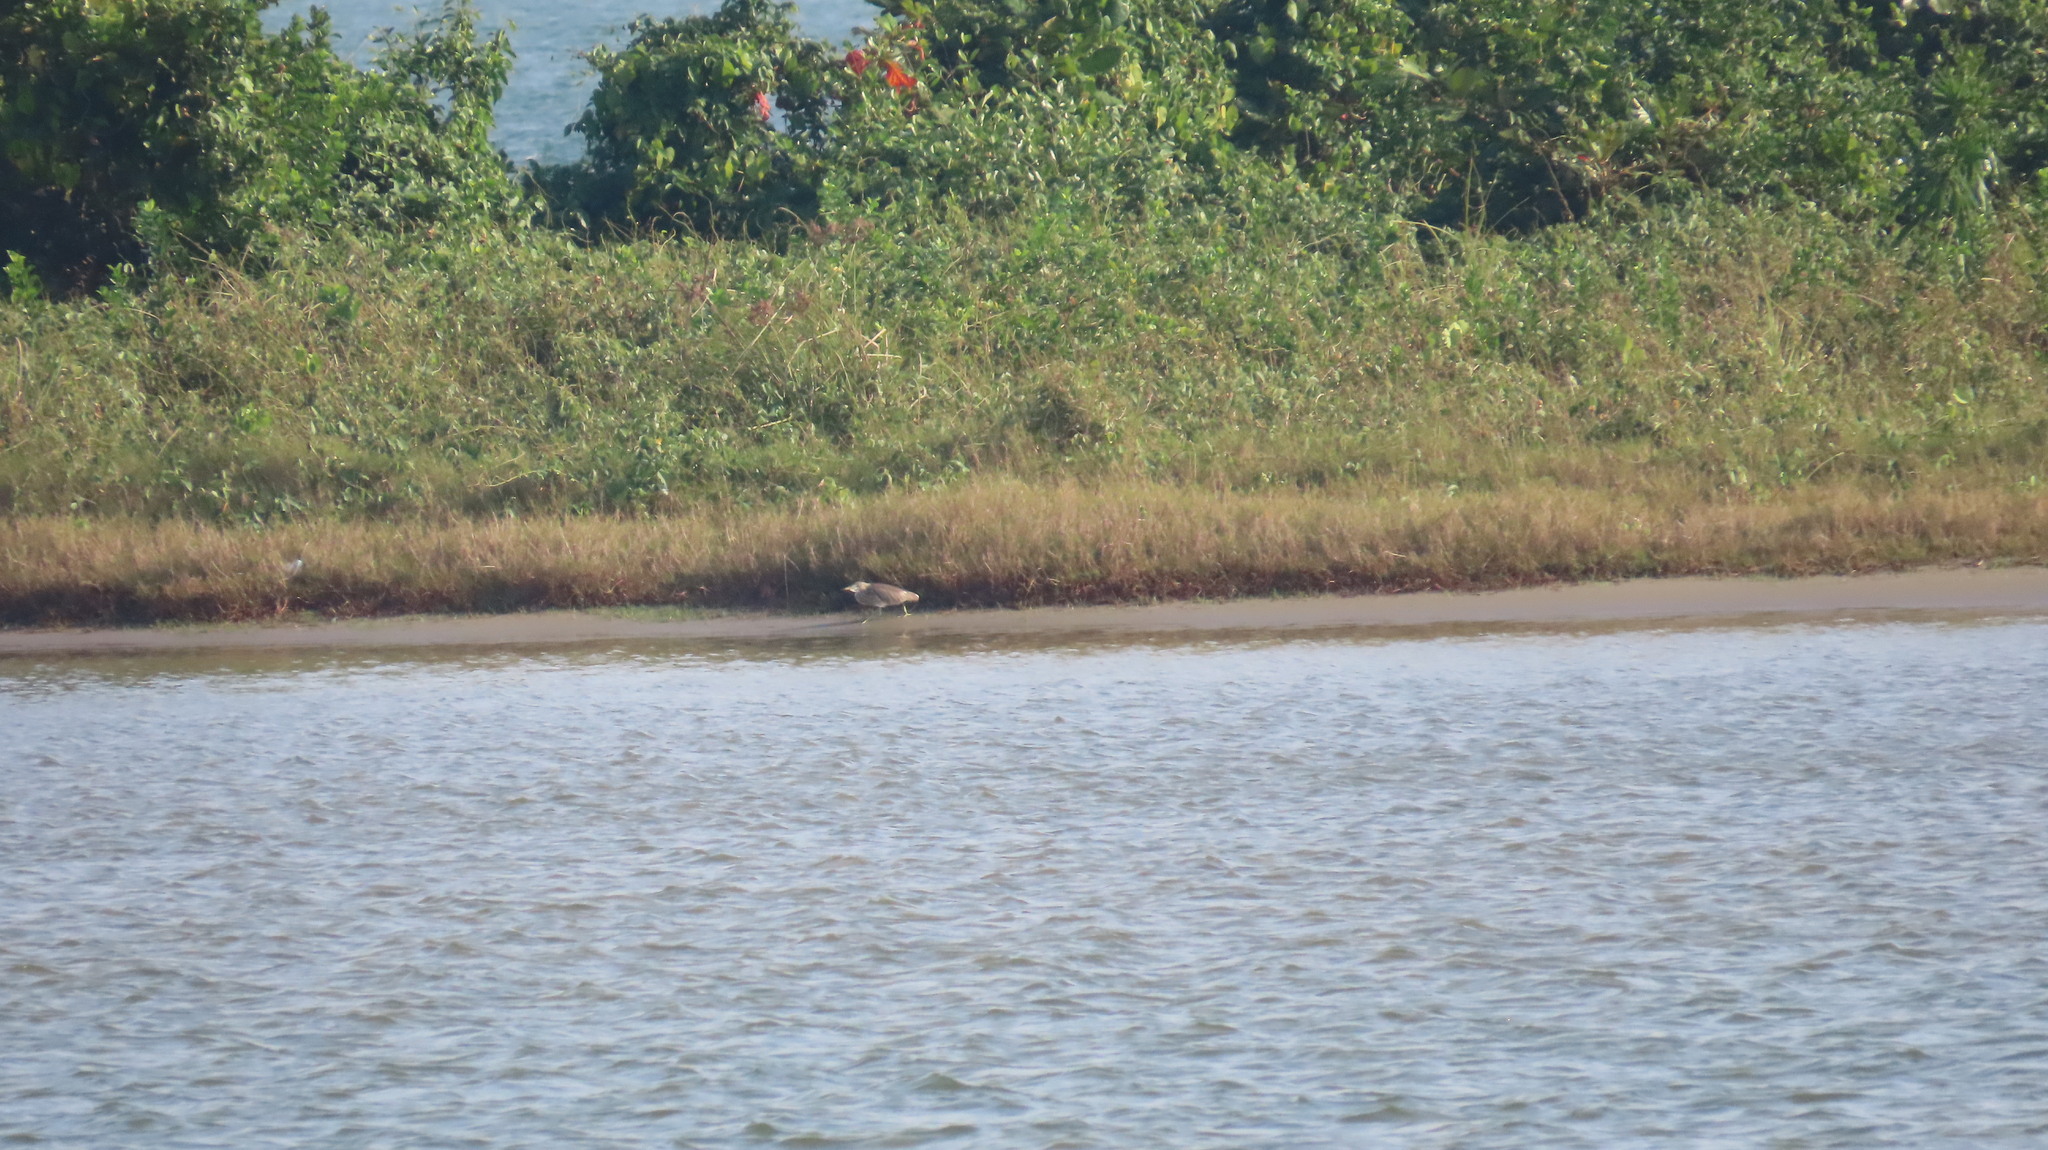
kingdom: Animalia
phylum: Chordata
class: Aves
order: Pelecaniformes
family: Ardeidae
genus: Ardeola
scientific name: Ardeola grayii
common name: Indian pond heron
